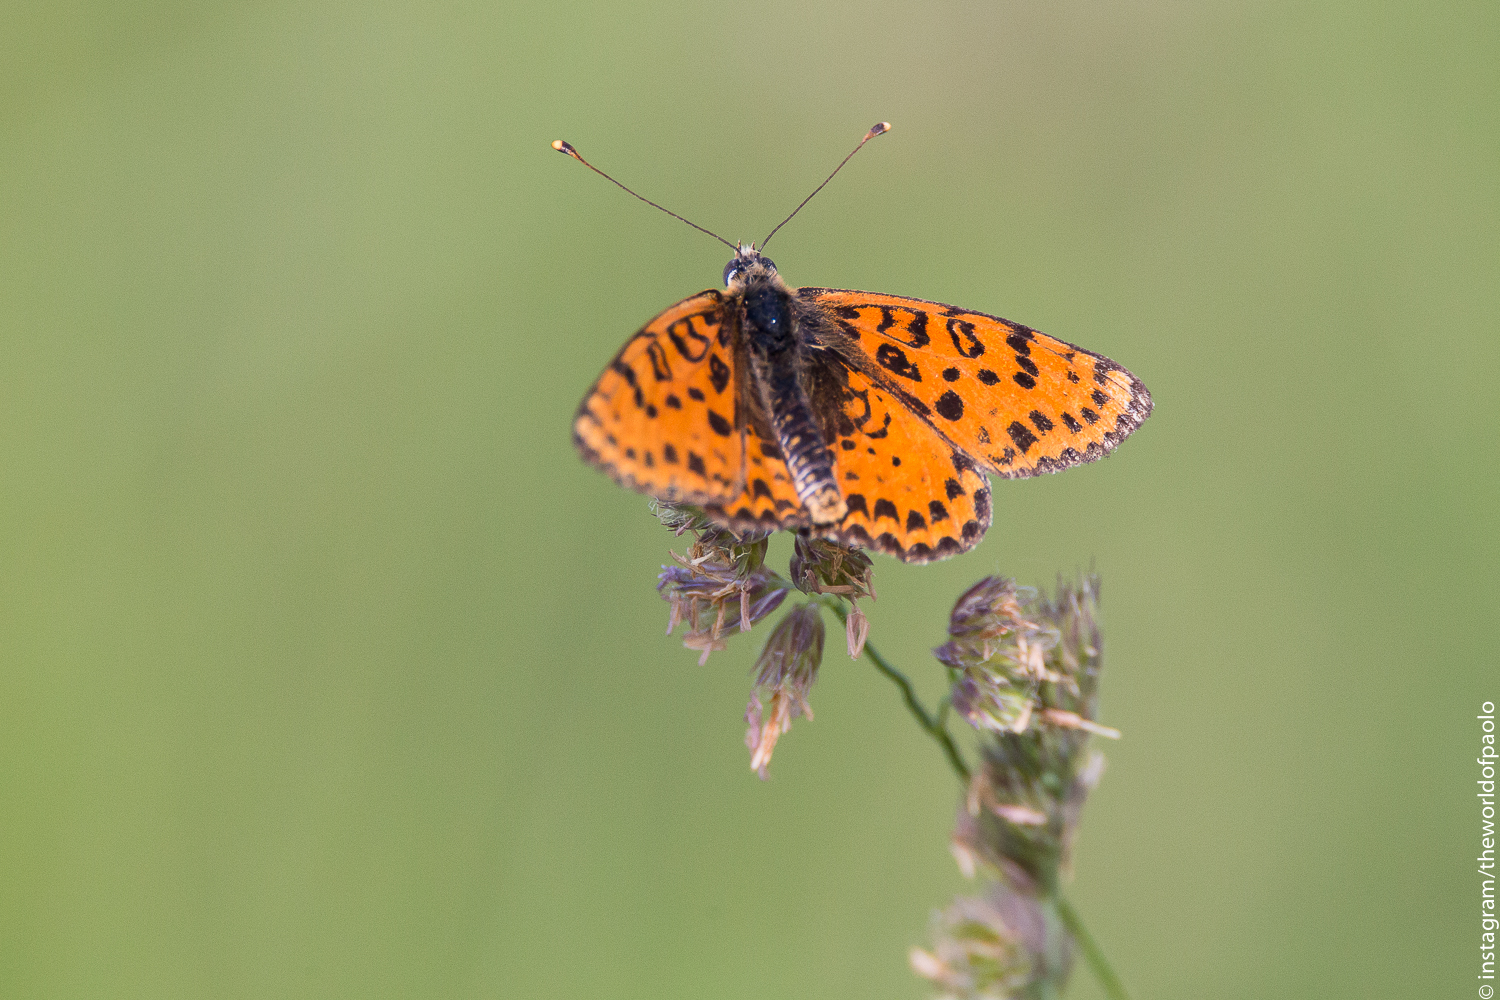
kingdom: Animalia
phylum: Arthropoda
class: Insecta
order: Lepidoptera
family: Nymphalidae
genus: Melitaea
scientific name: Melitaea didyma
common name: Spotted fritillary
